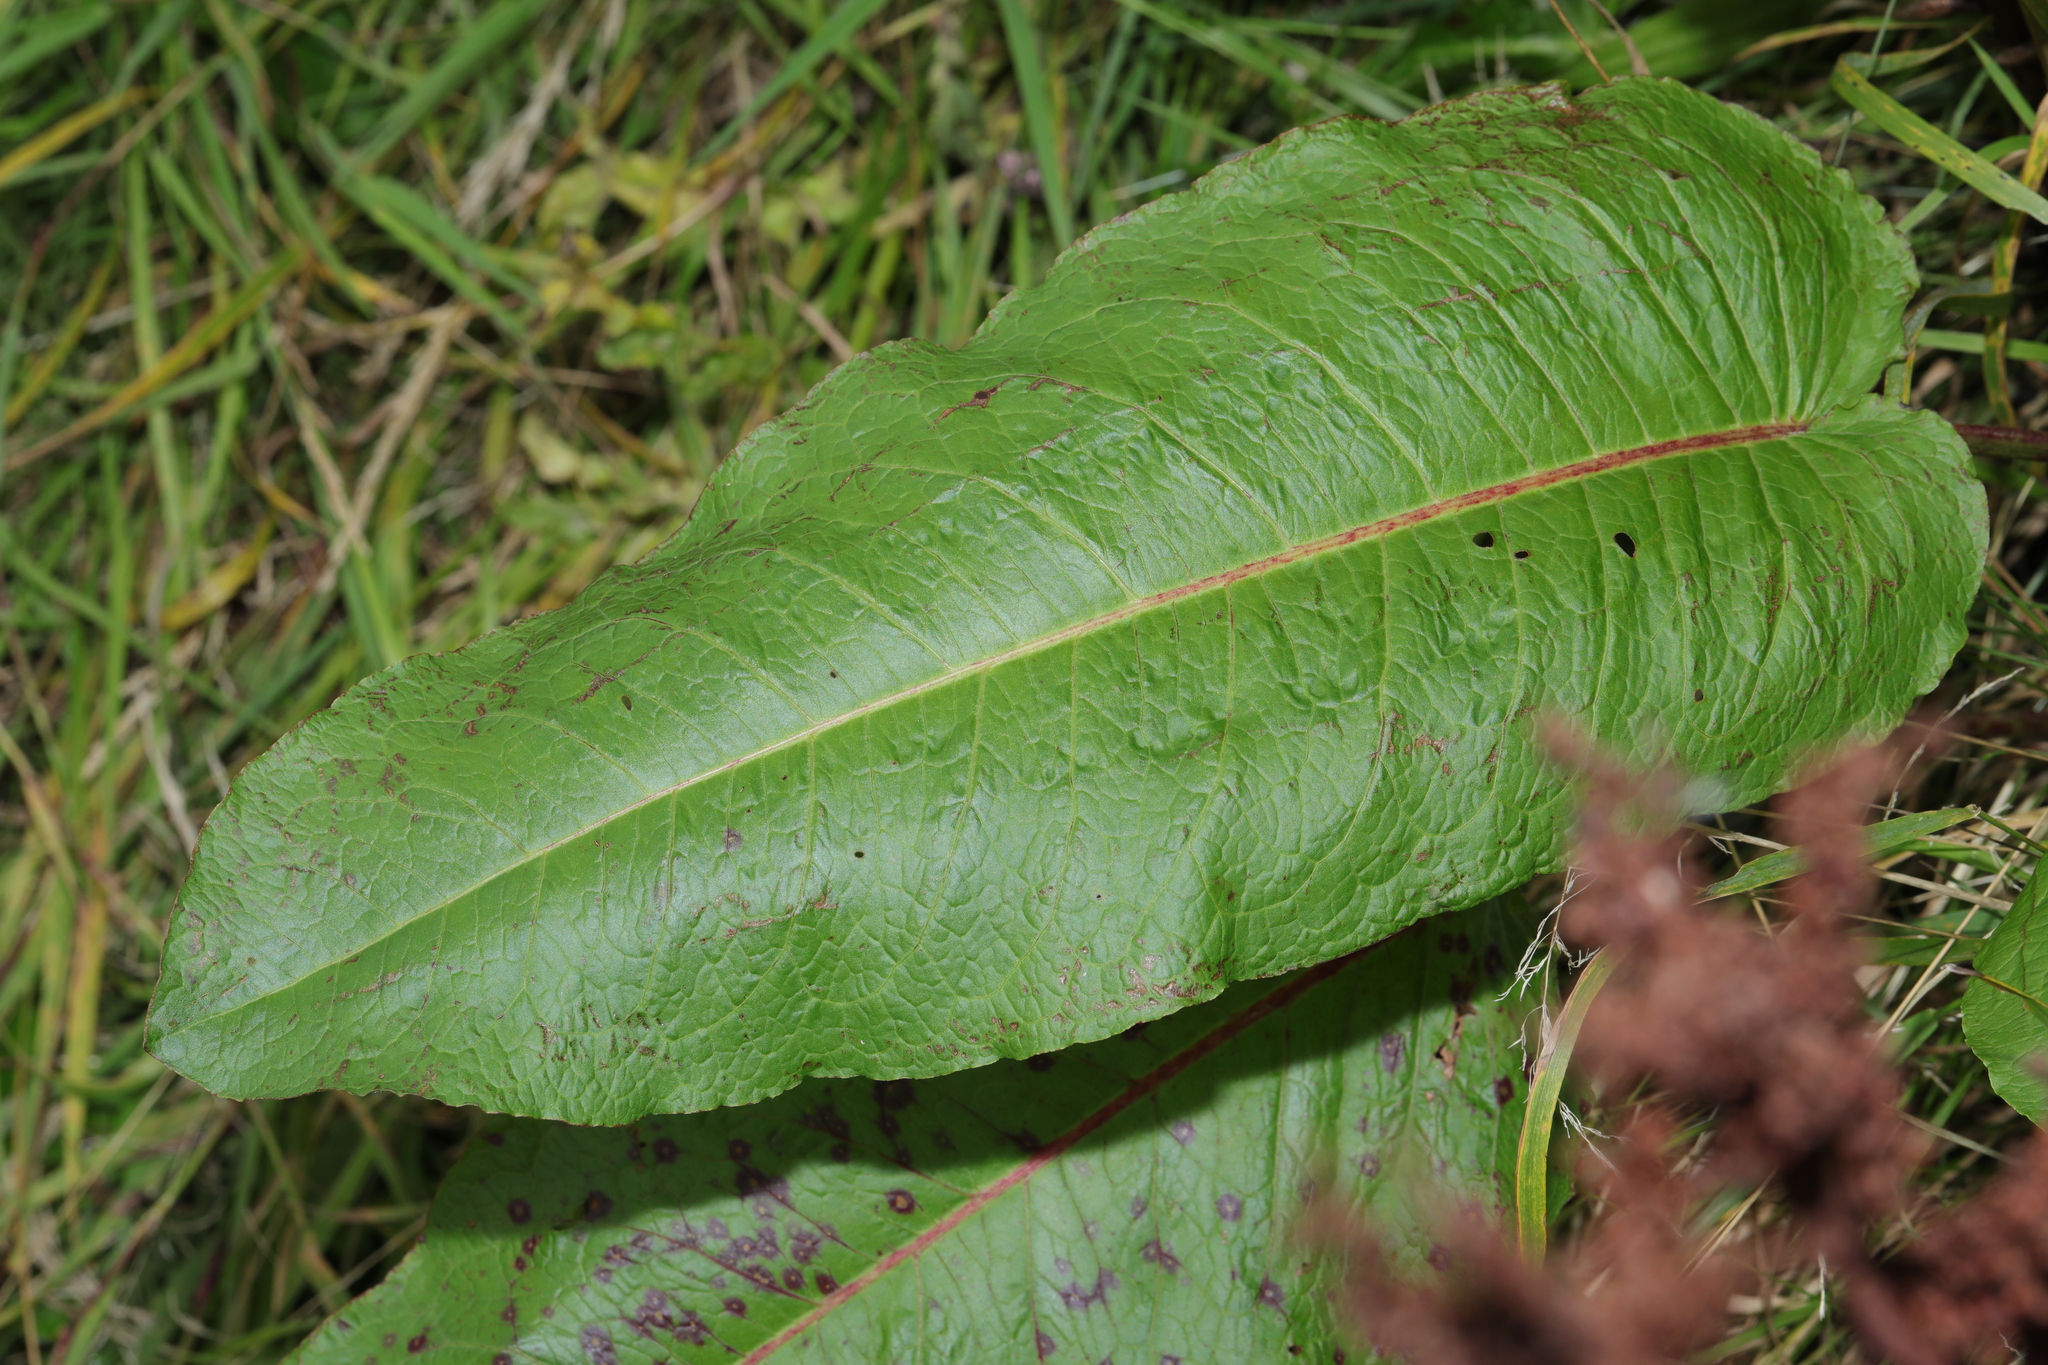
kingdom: Plantae
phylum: Tracheophyta
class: Magnoliopsida
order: Caryophyllales
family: Polygonaceae
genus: Rumex
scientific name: Rumex obtusifolius
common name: Bitter dock
